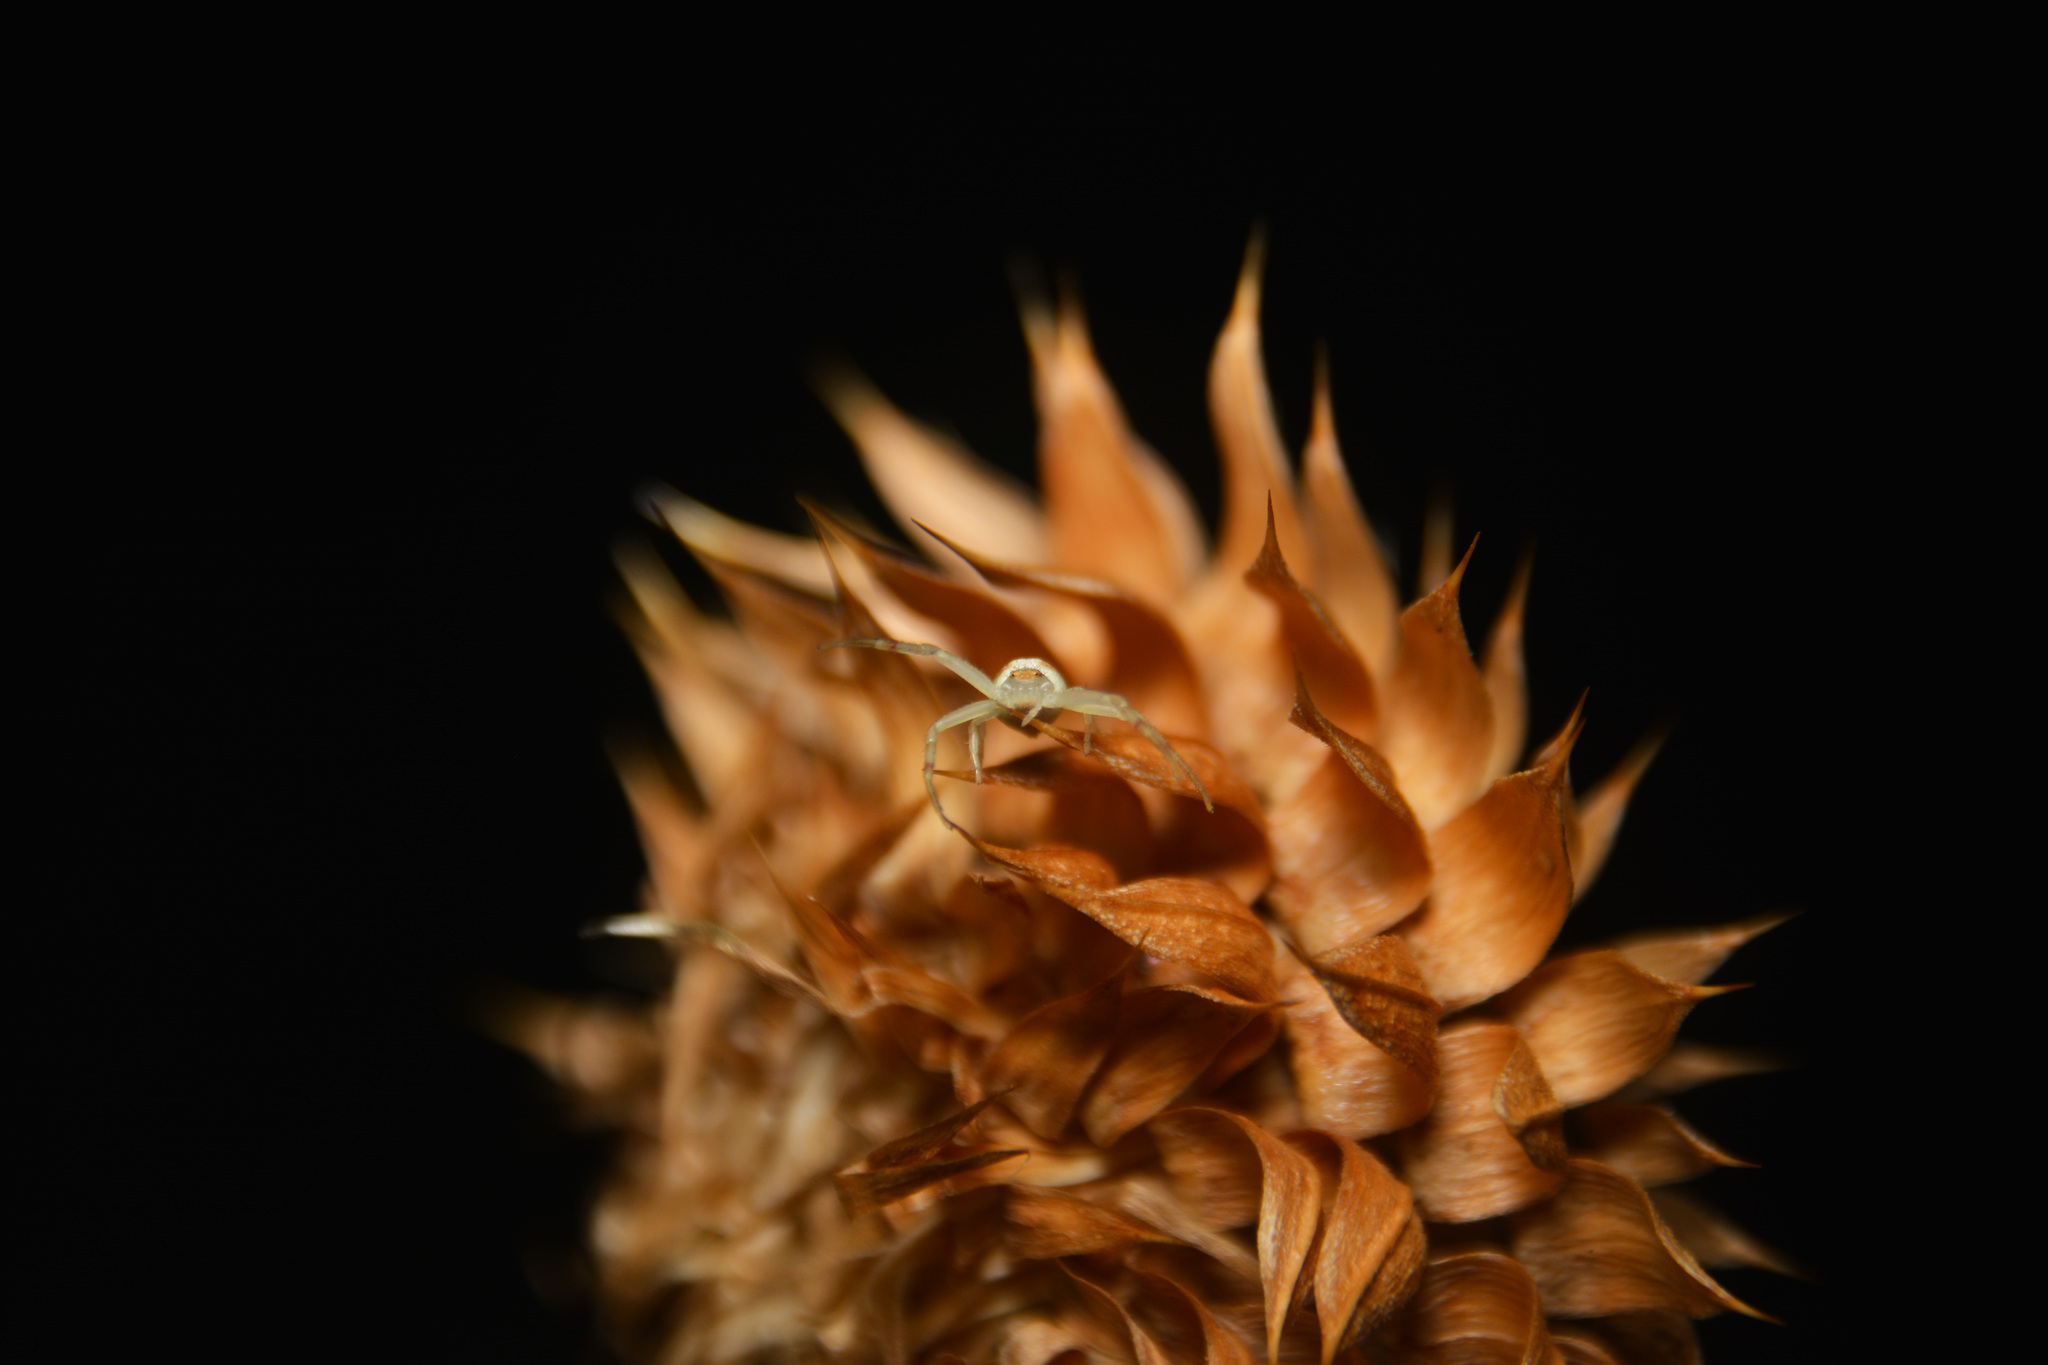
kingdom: Plantae
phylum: Tracheophyta
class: Magnoliopsida
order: Asterales
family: Asteraceae
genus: Carduus
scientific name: Carduus nutans
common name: Musk thistle
